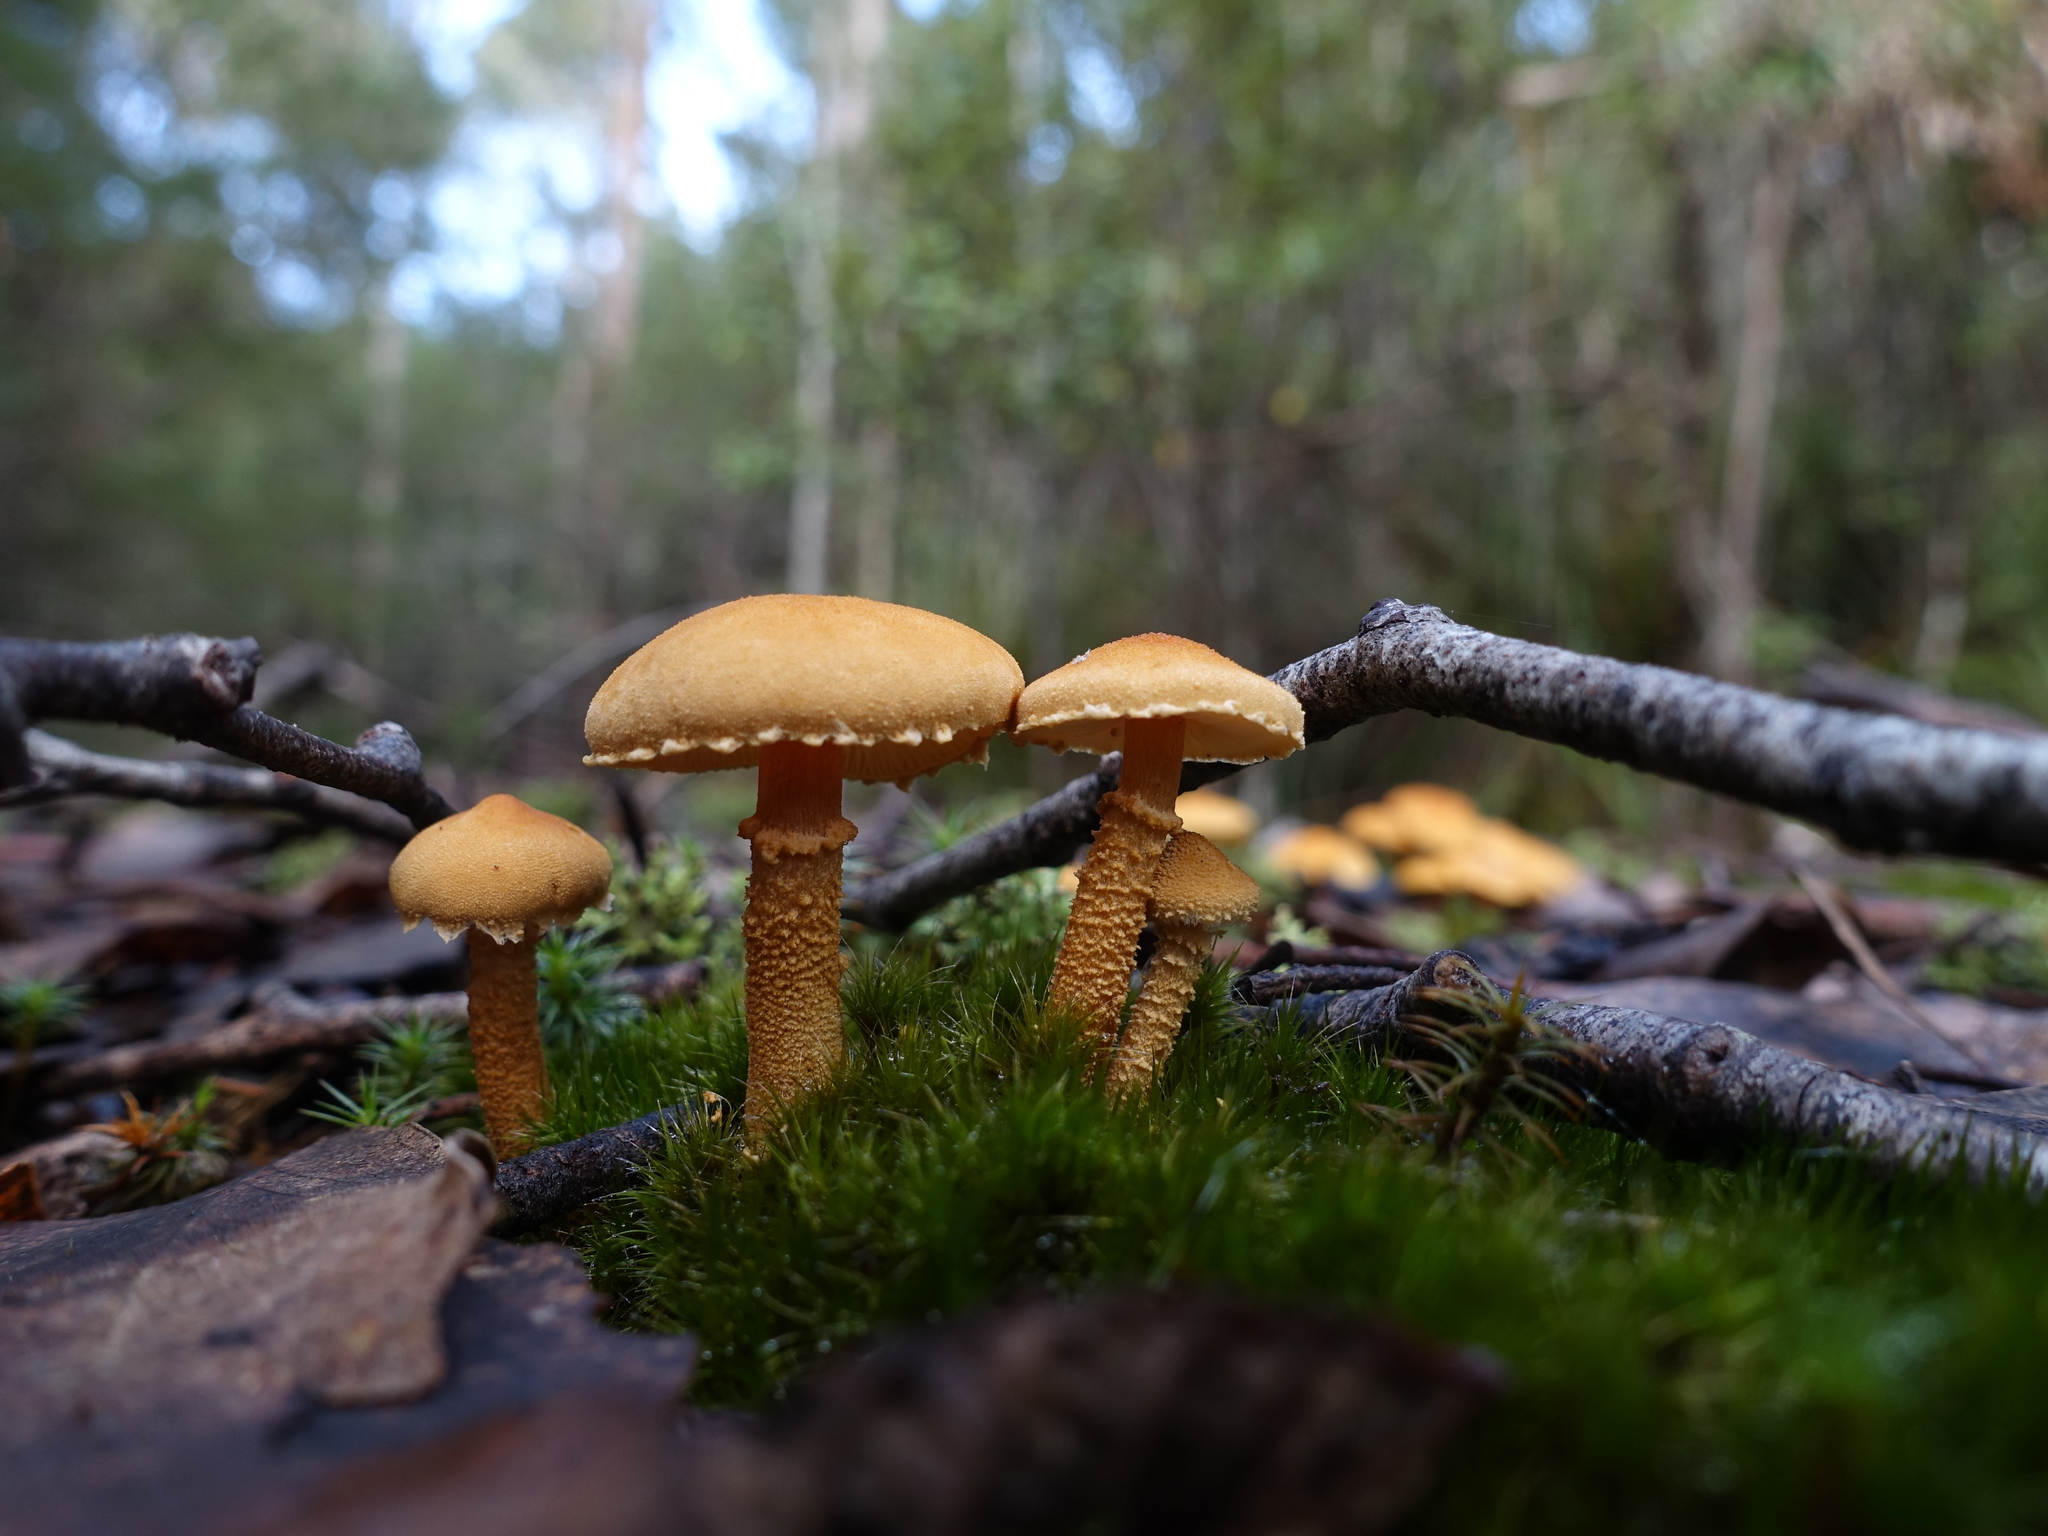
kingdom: Fungi
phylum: Basidiomycota
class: Agaricomycetes
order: Agaricales
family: Tricholomataceae
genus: Cystoderma
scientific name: Cystoderma muscicola
